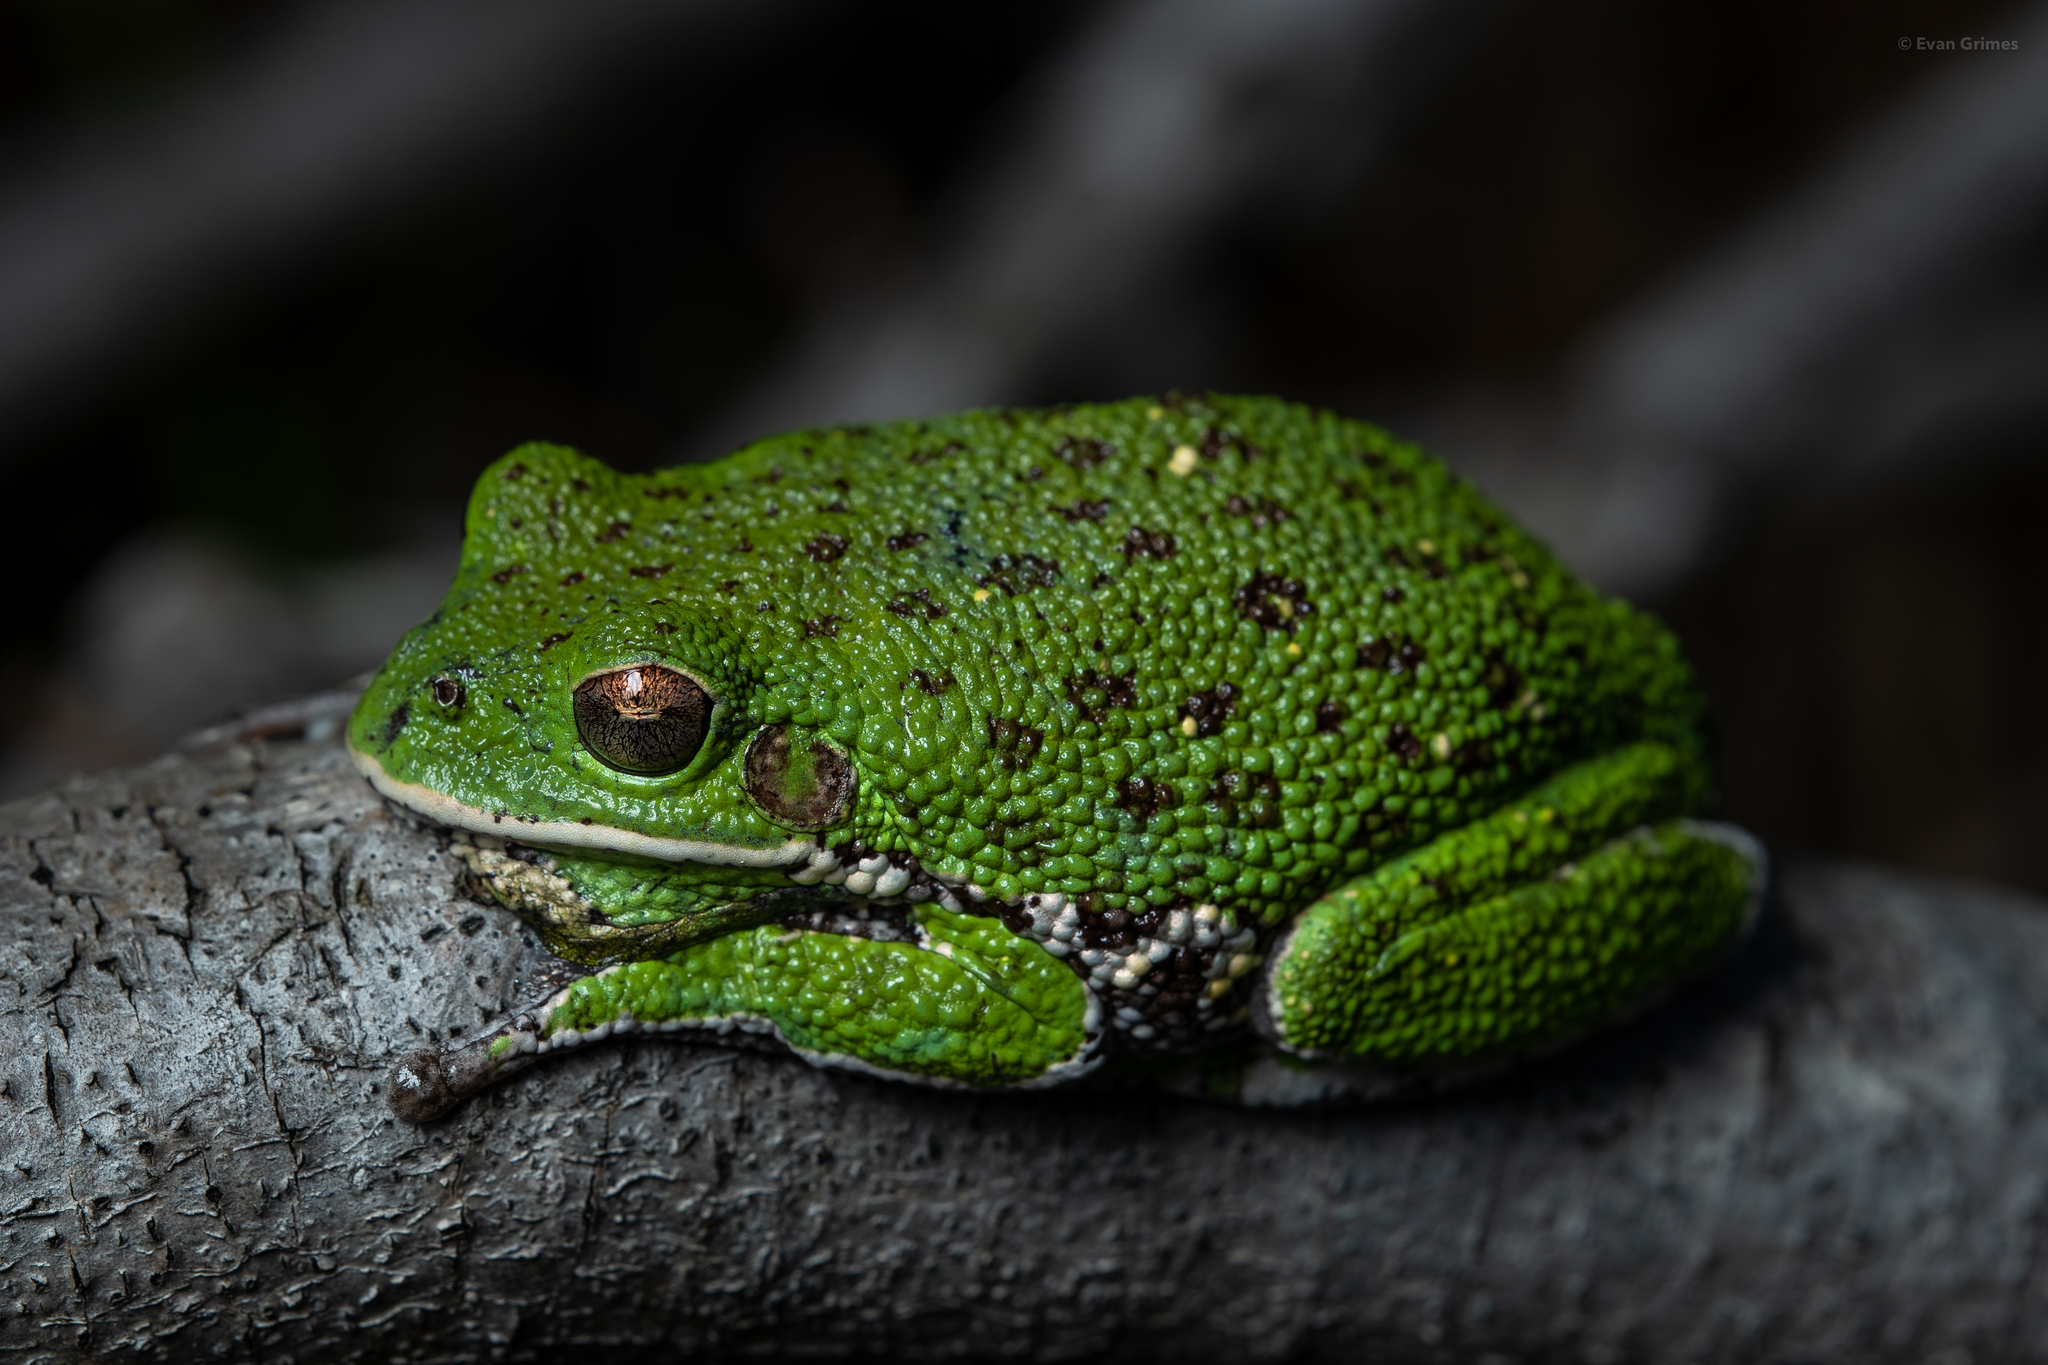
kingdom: Animalia
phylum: Chordata
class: Amphibia
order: Anura
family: Hylidae
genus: Dryophytes
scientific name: Dryophytes gratiosus
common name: Barking treefrog
